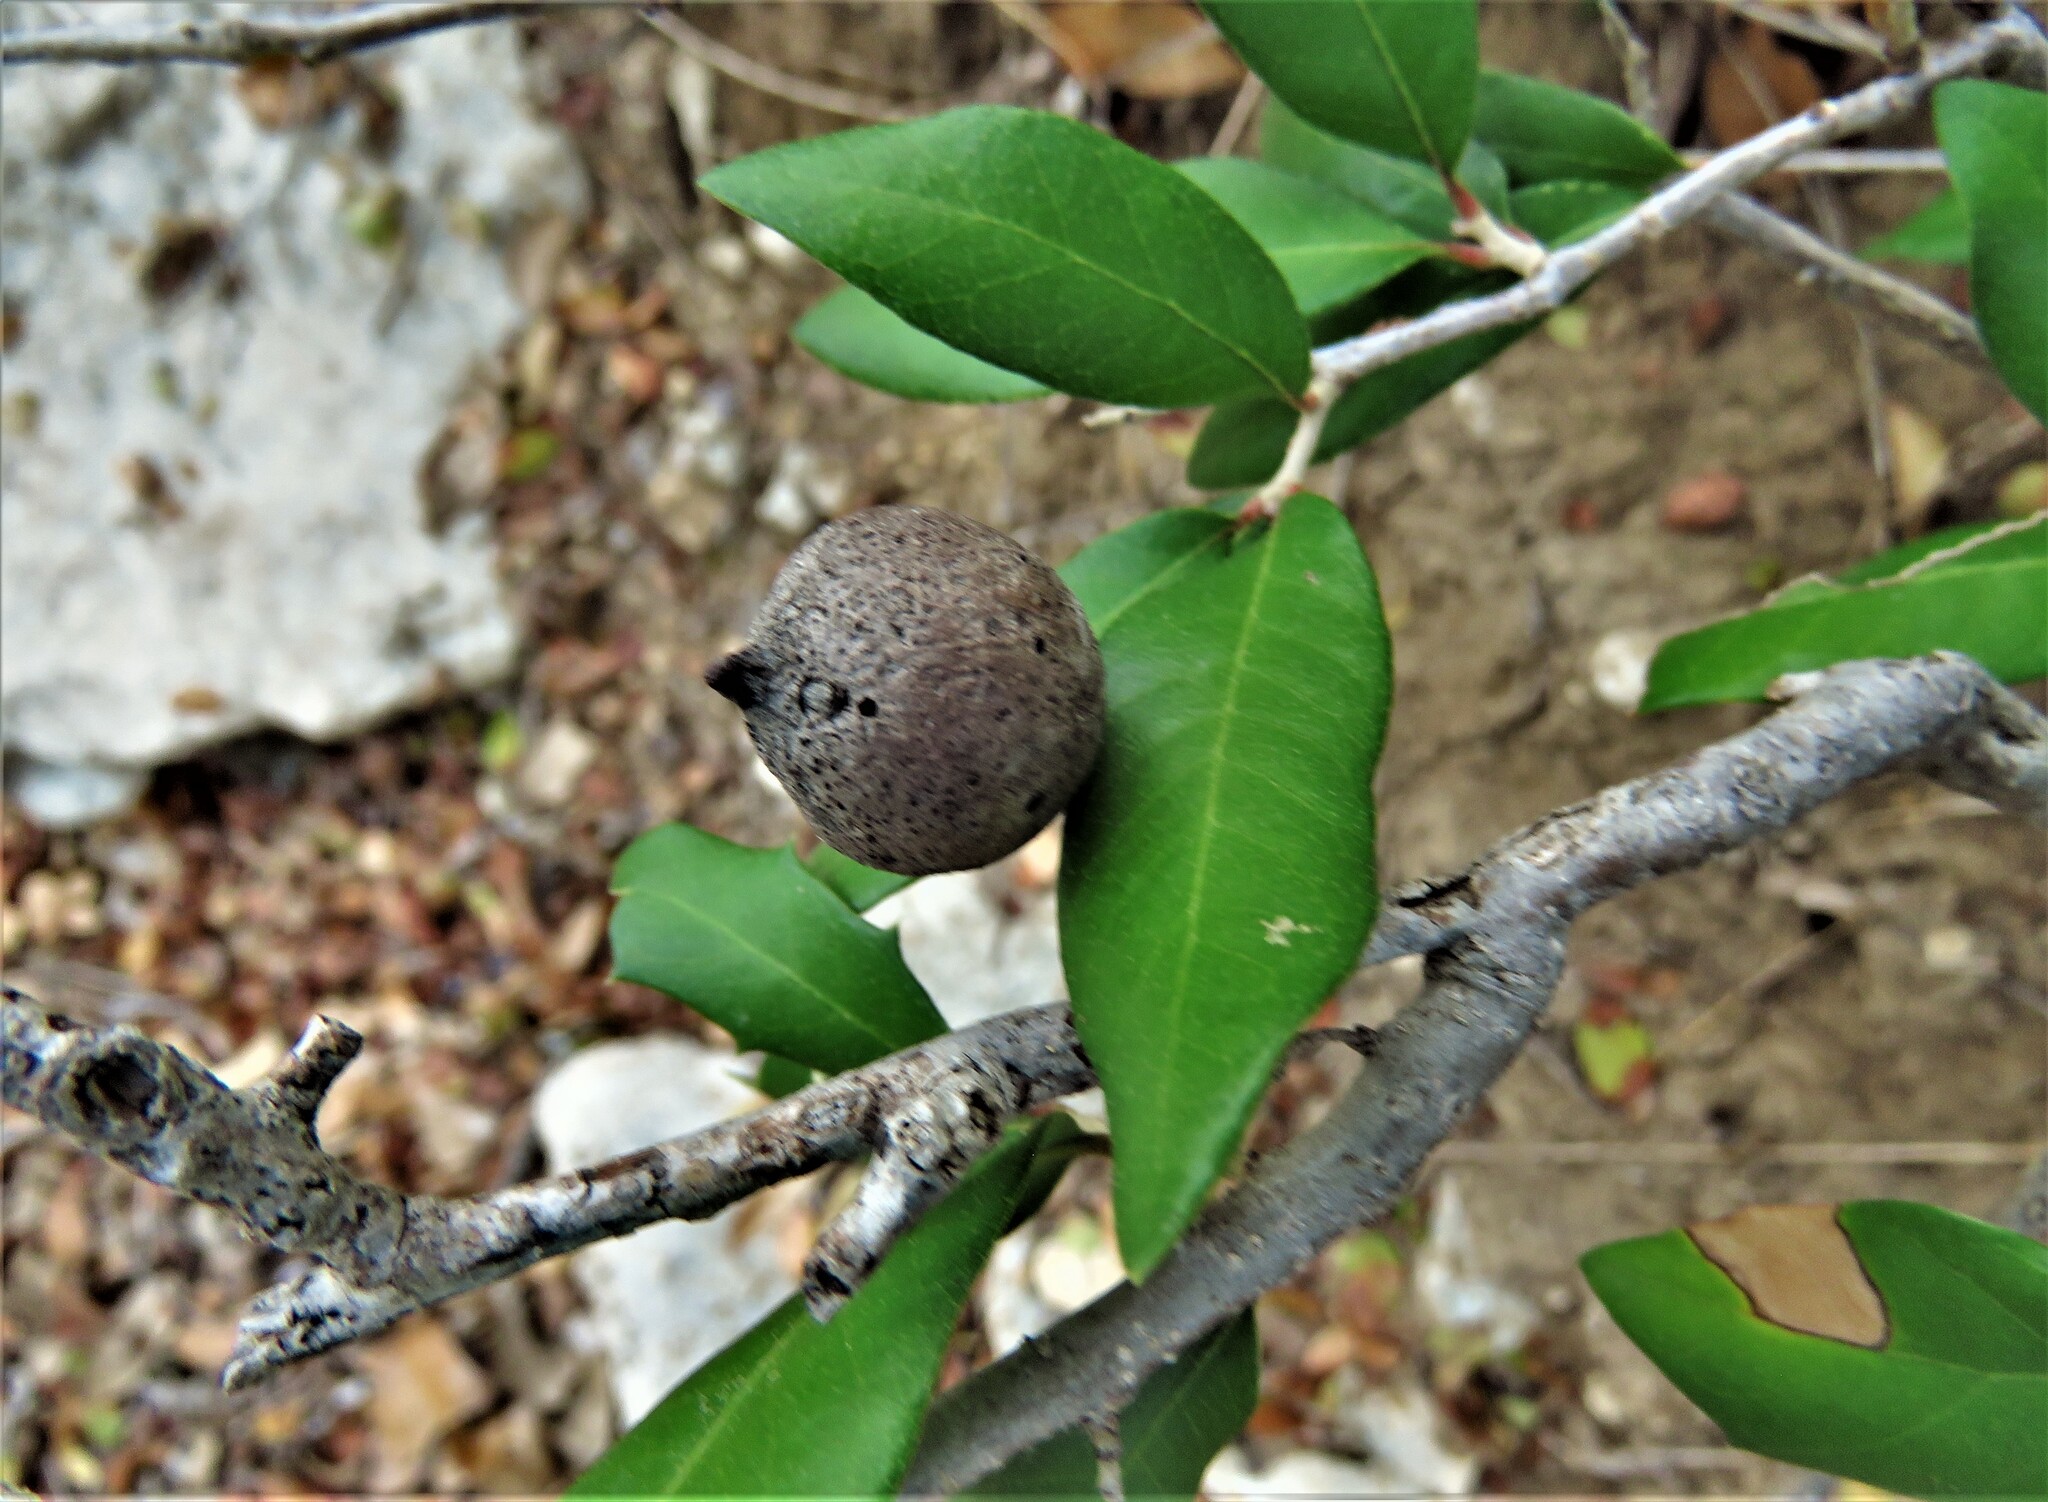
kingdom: Animalia
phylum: Arthropoda
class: Insecta
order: Hymenoptera
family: Cynipidae
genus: Disholcaspis
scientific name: Disholcaspis
